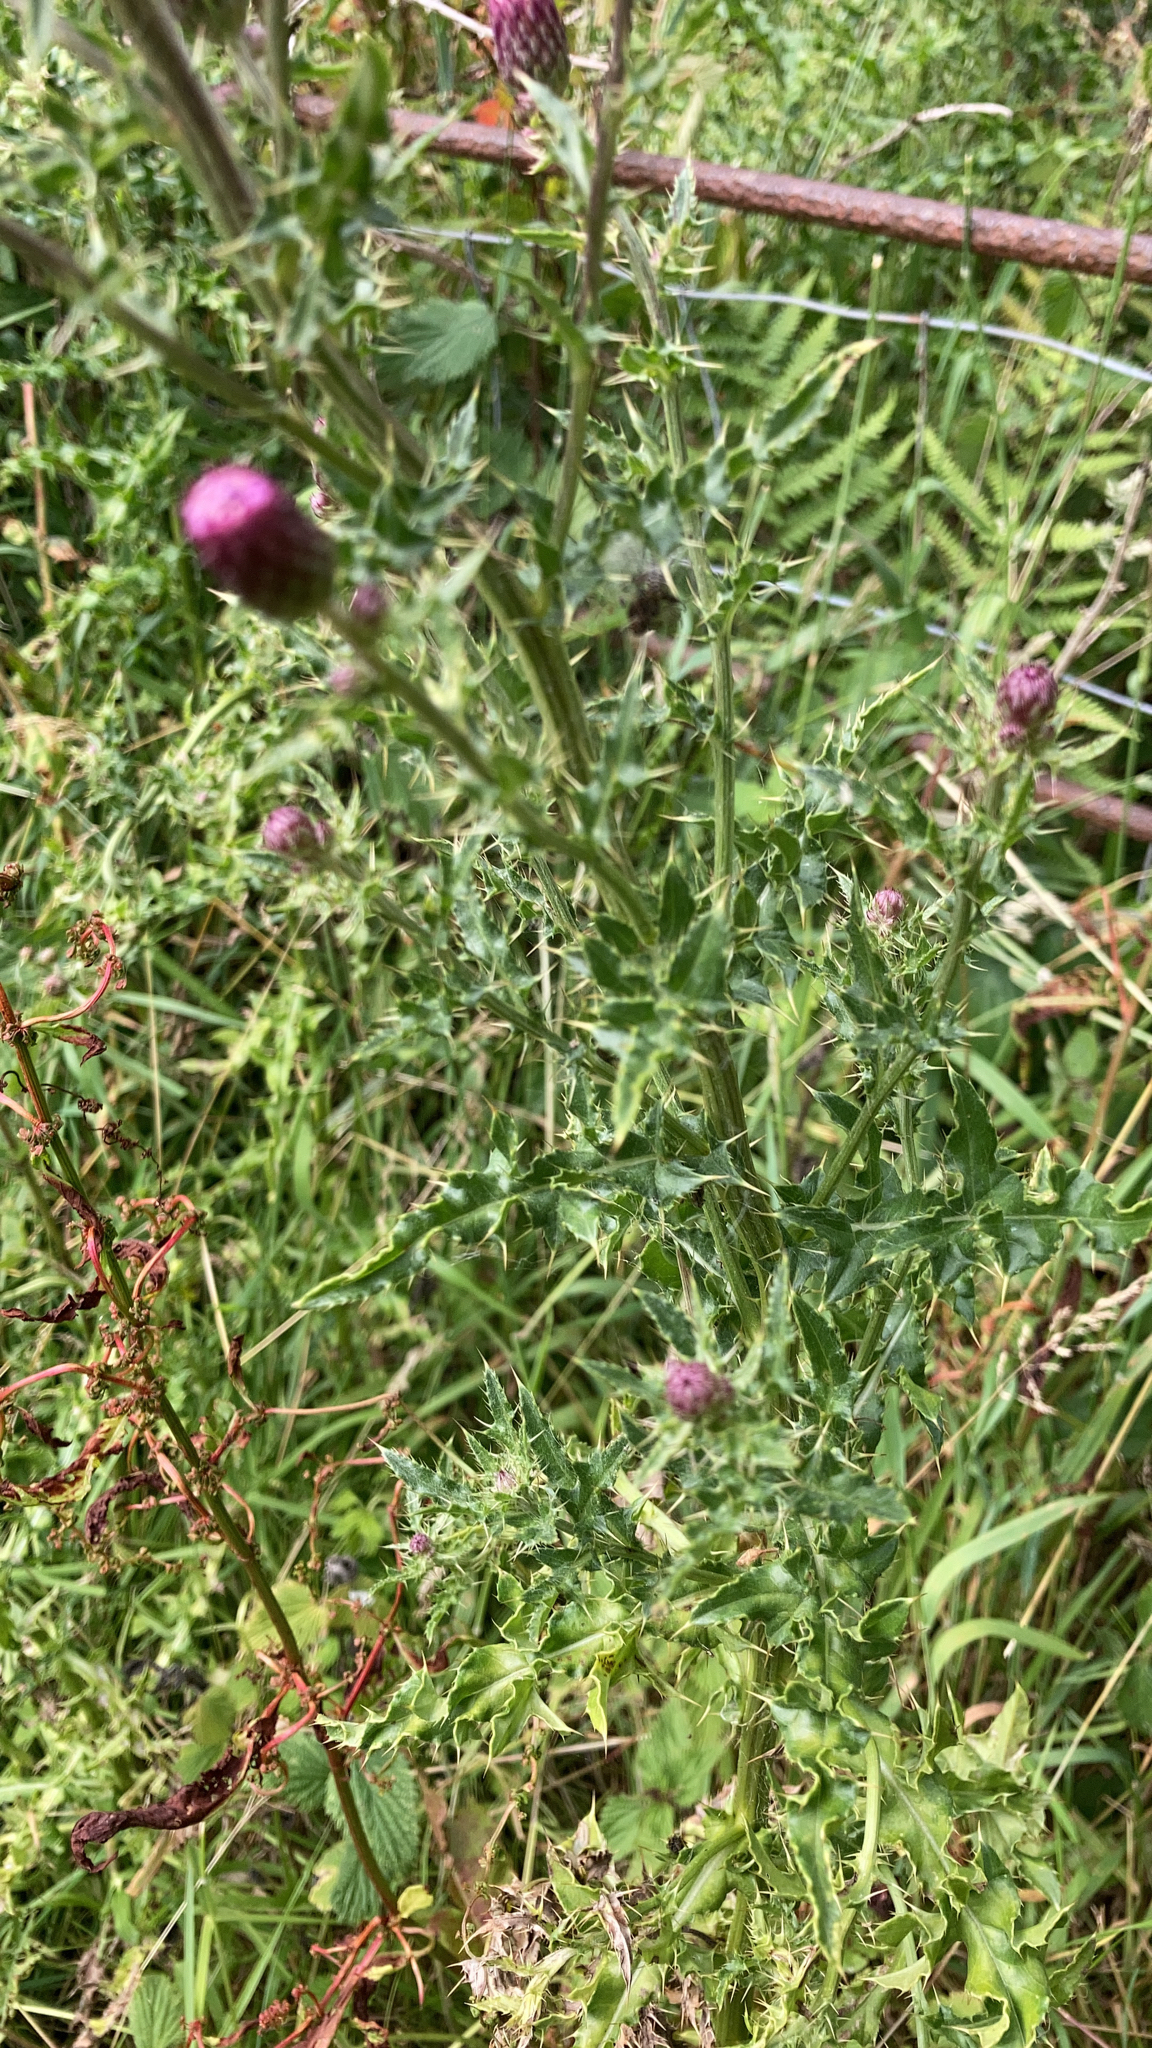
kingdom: Plantae
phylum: Tracheophyta
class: Magnoliopsida
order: Asterales
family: Asteraceae
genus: Cirsium
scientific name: Cirsium arvense
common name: Creeping thistle
